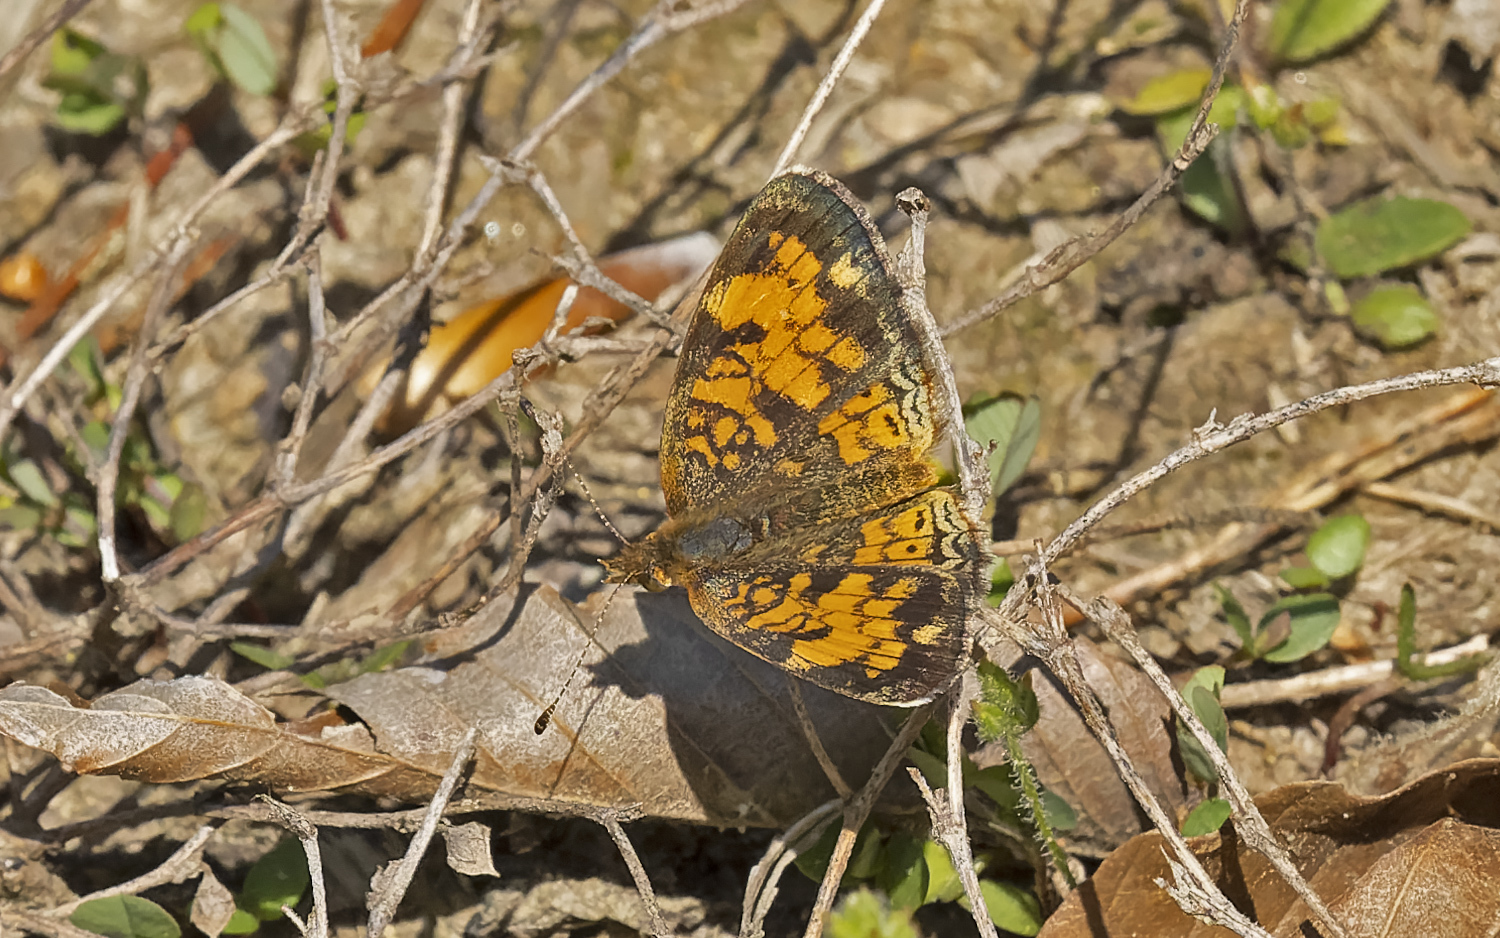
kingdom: Animalia
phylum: Arthropoda
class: Insecta
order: Lepidoptera
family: Nymphalidae
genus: Phyciodes
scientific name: Phyciodes tharos
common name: Pearl crescent
